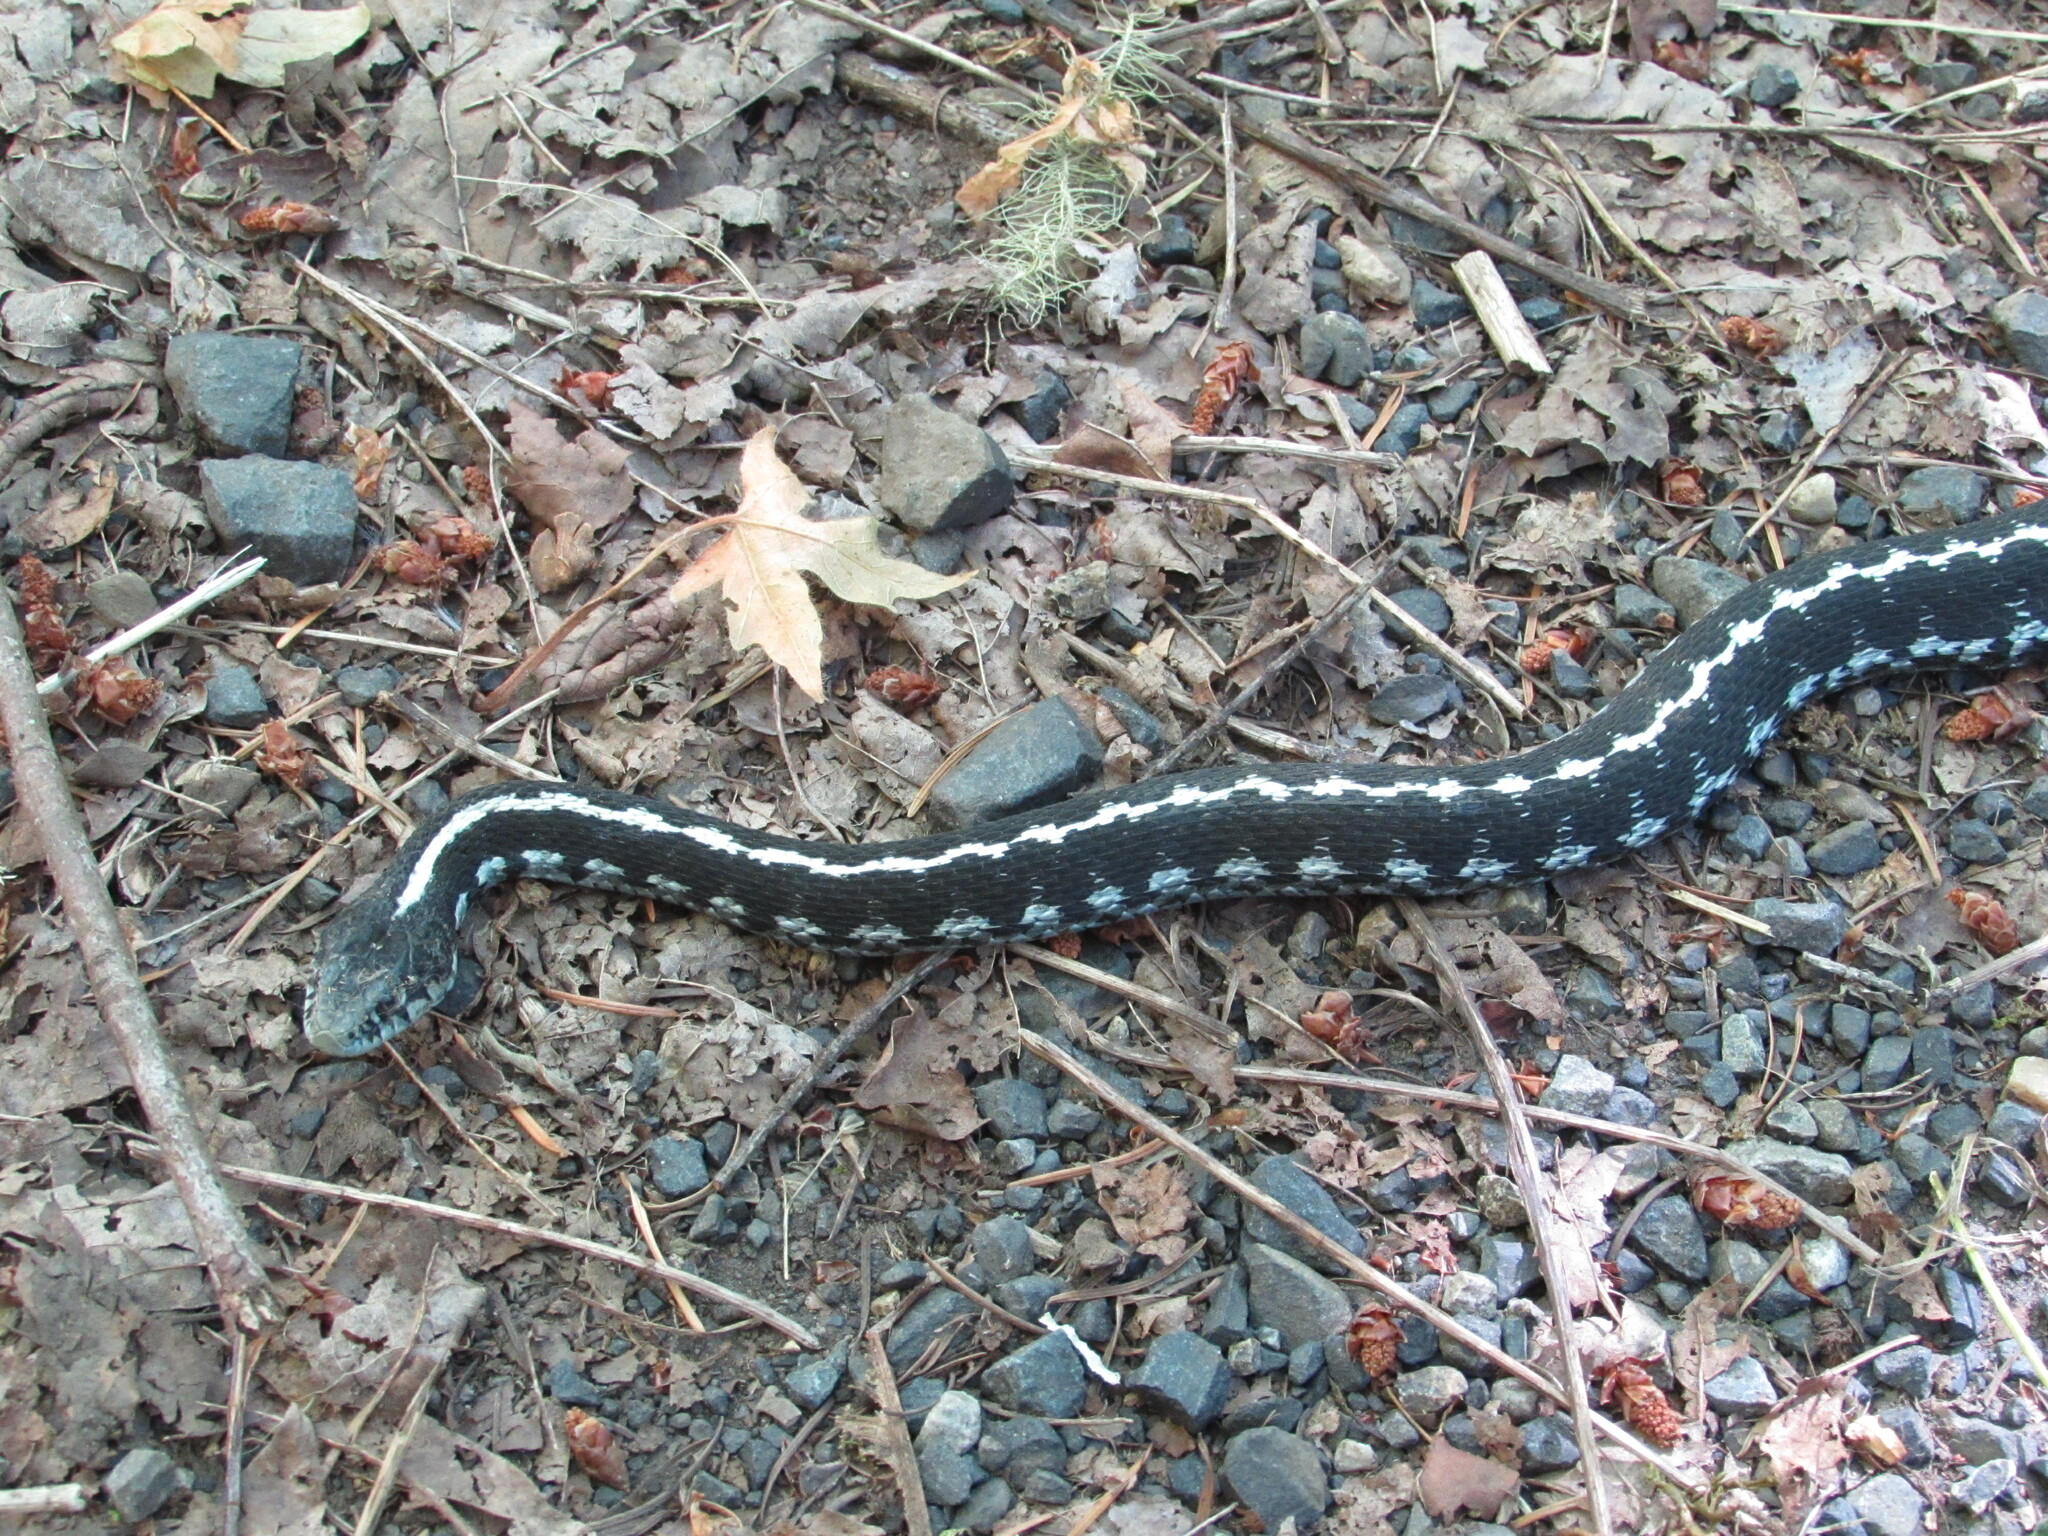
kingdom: Animalia
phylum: Chordata
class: Squamata
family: Colubridae
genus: Thamnophis
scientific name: Thamnophis elegans
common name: Western terrestrial garter snake
